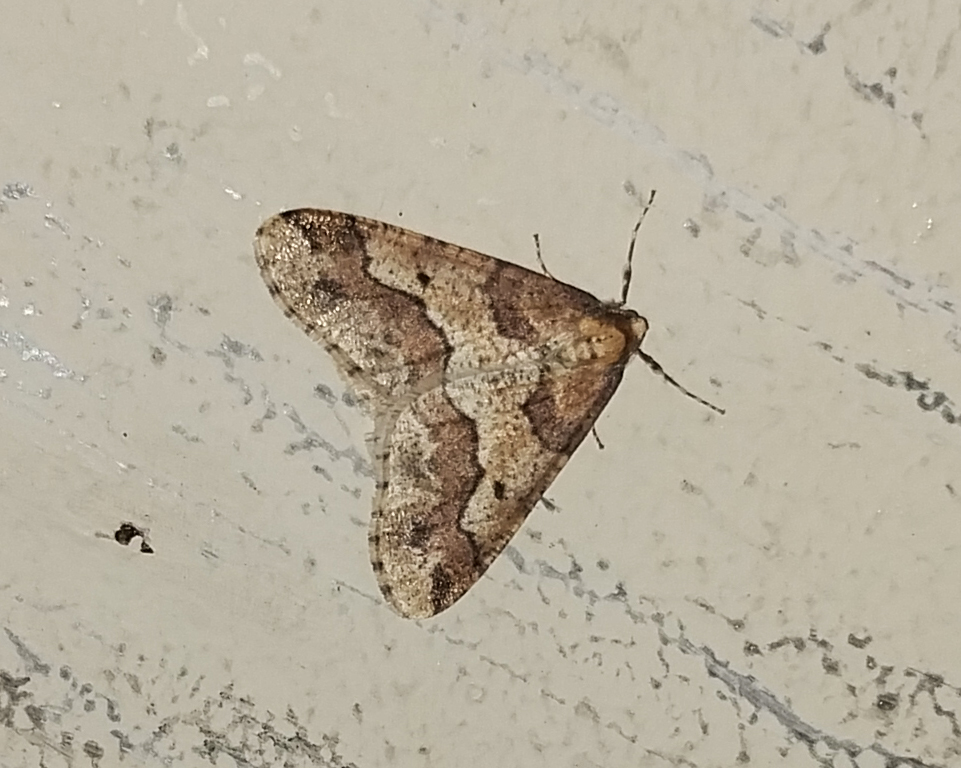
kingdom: Animalia
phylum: Arthropoda
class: Insecta
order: Lepidoptera
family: Geometridae
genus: Erannis
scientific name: Erannis defoliaria
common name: Mottled umber
